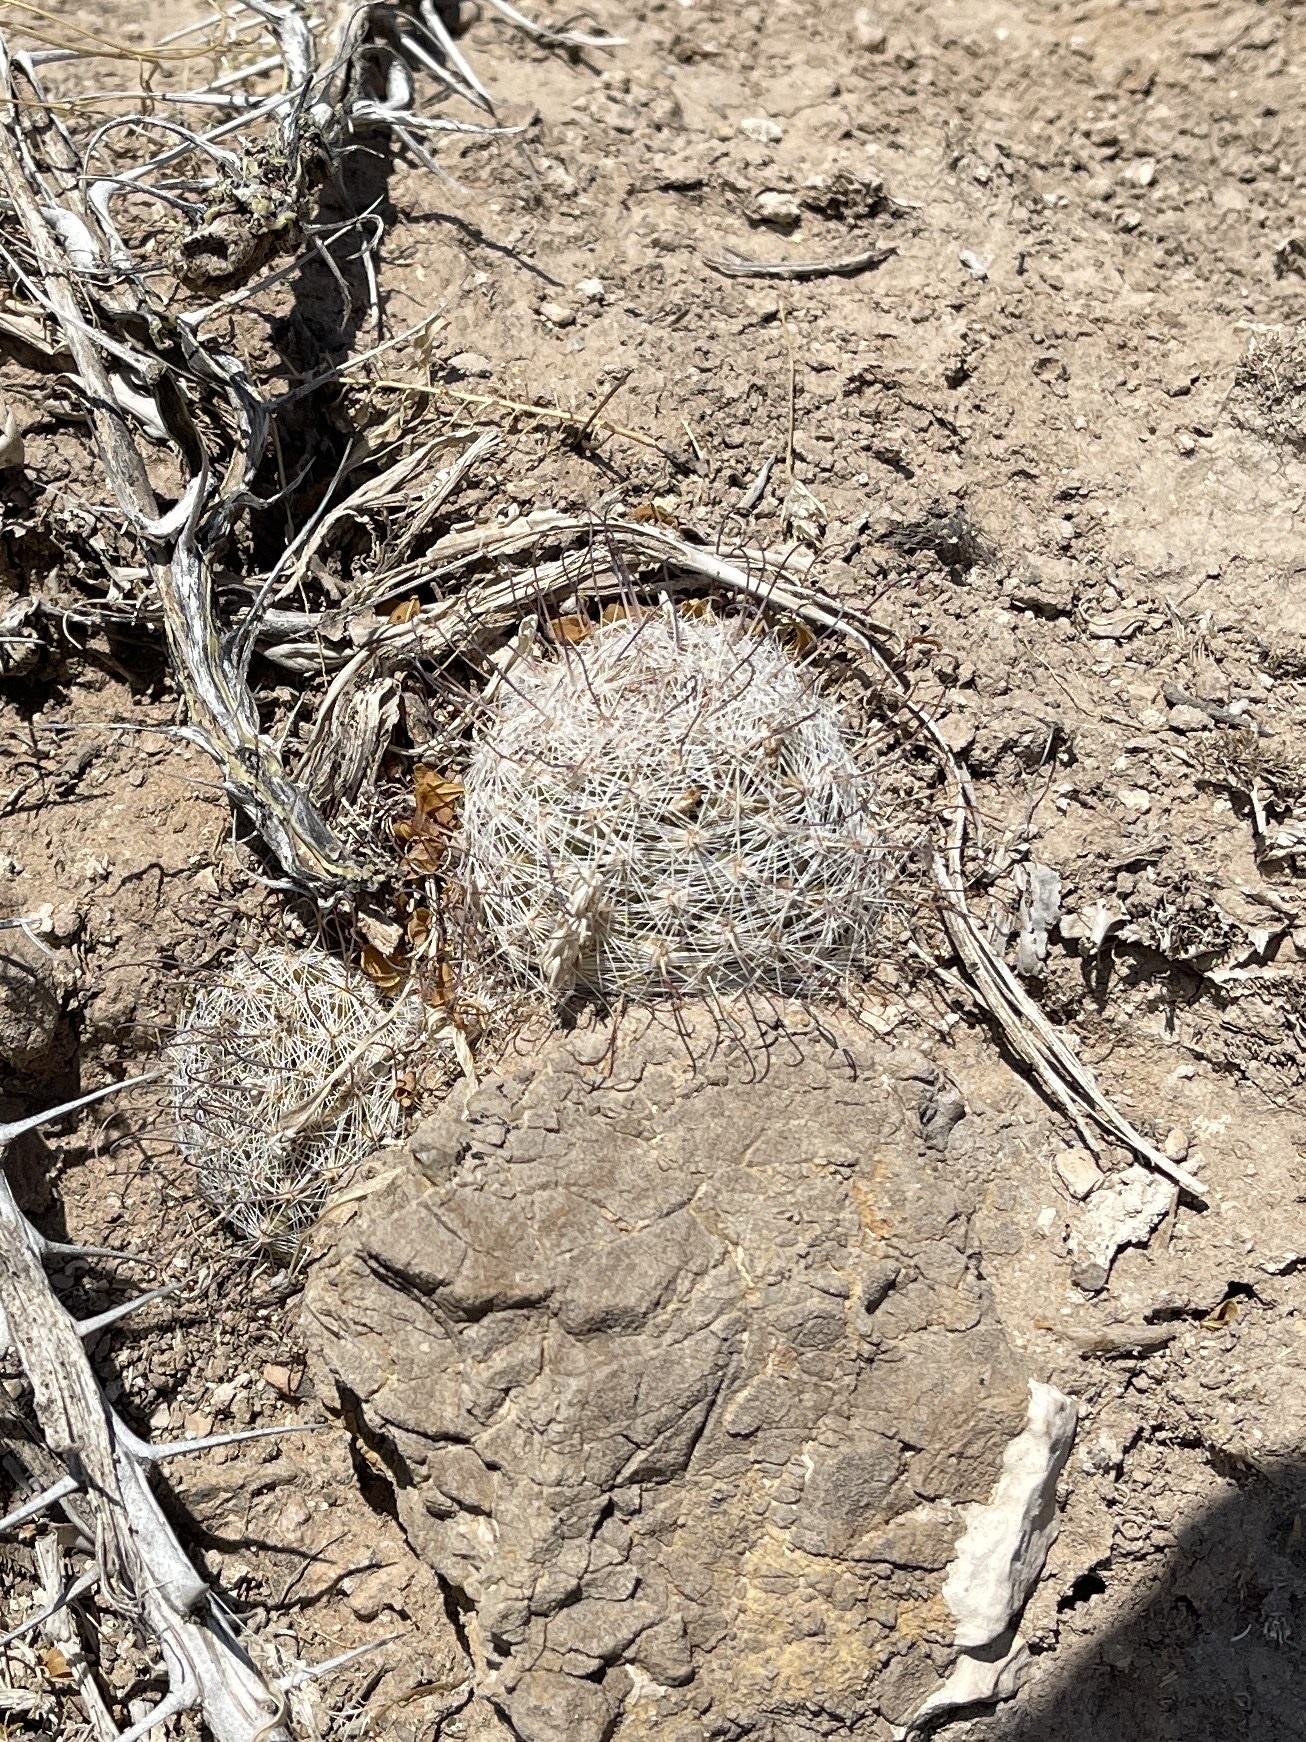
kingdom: Plantae
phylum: Tracheophyta
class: Magnoliopsida
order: Caryophyllales
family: Cactaceae
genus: Cochemiea
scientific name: Cochemiea grahamii
